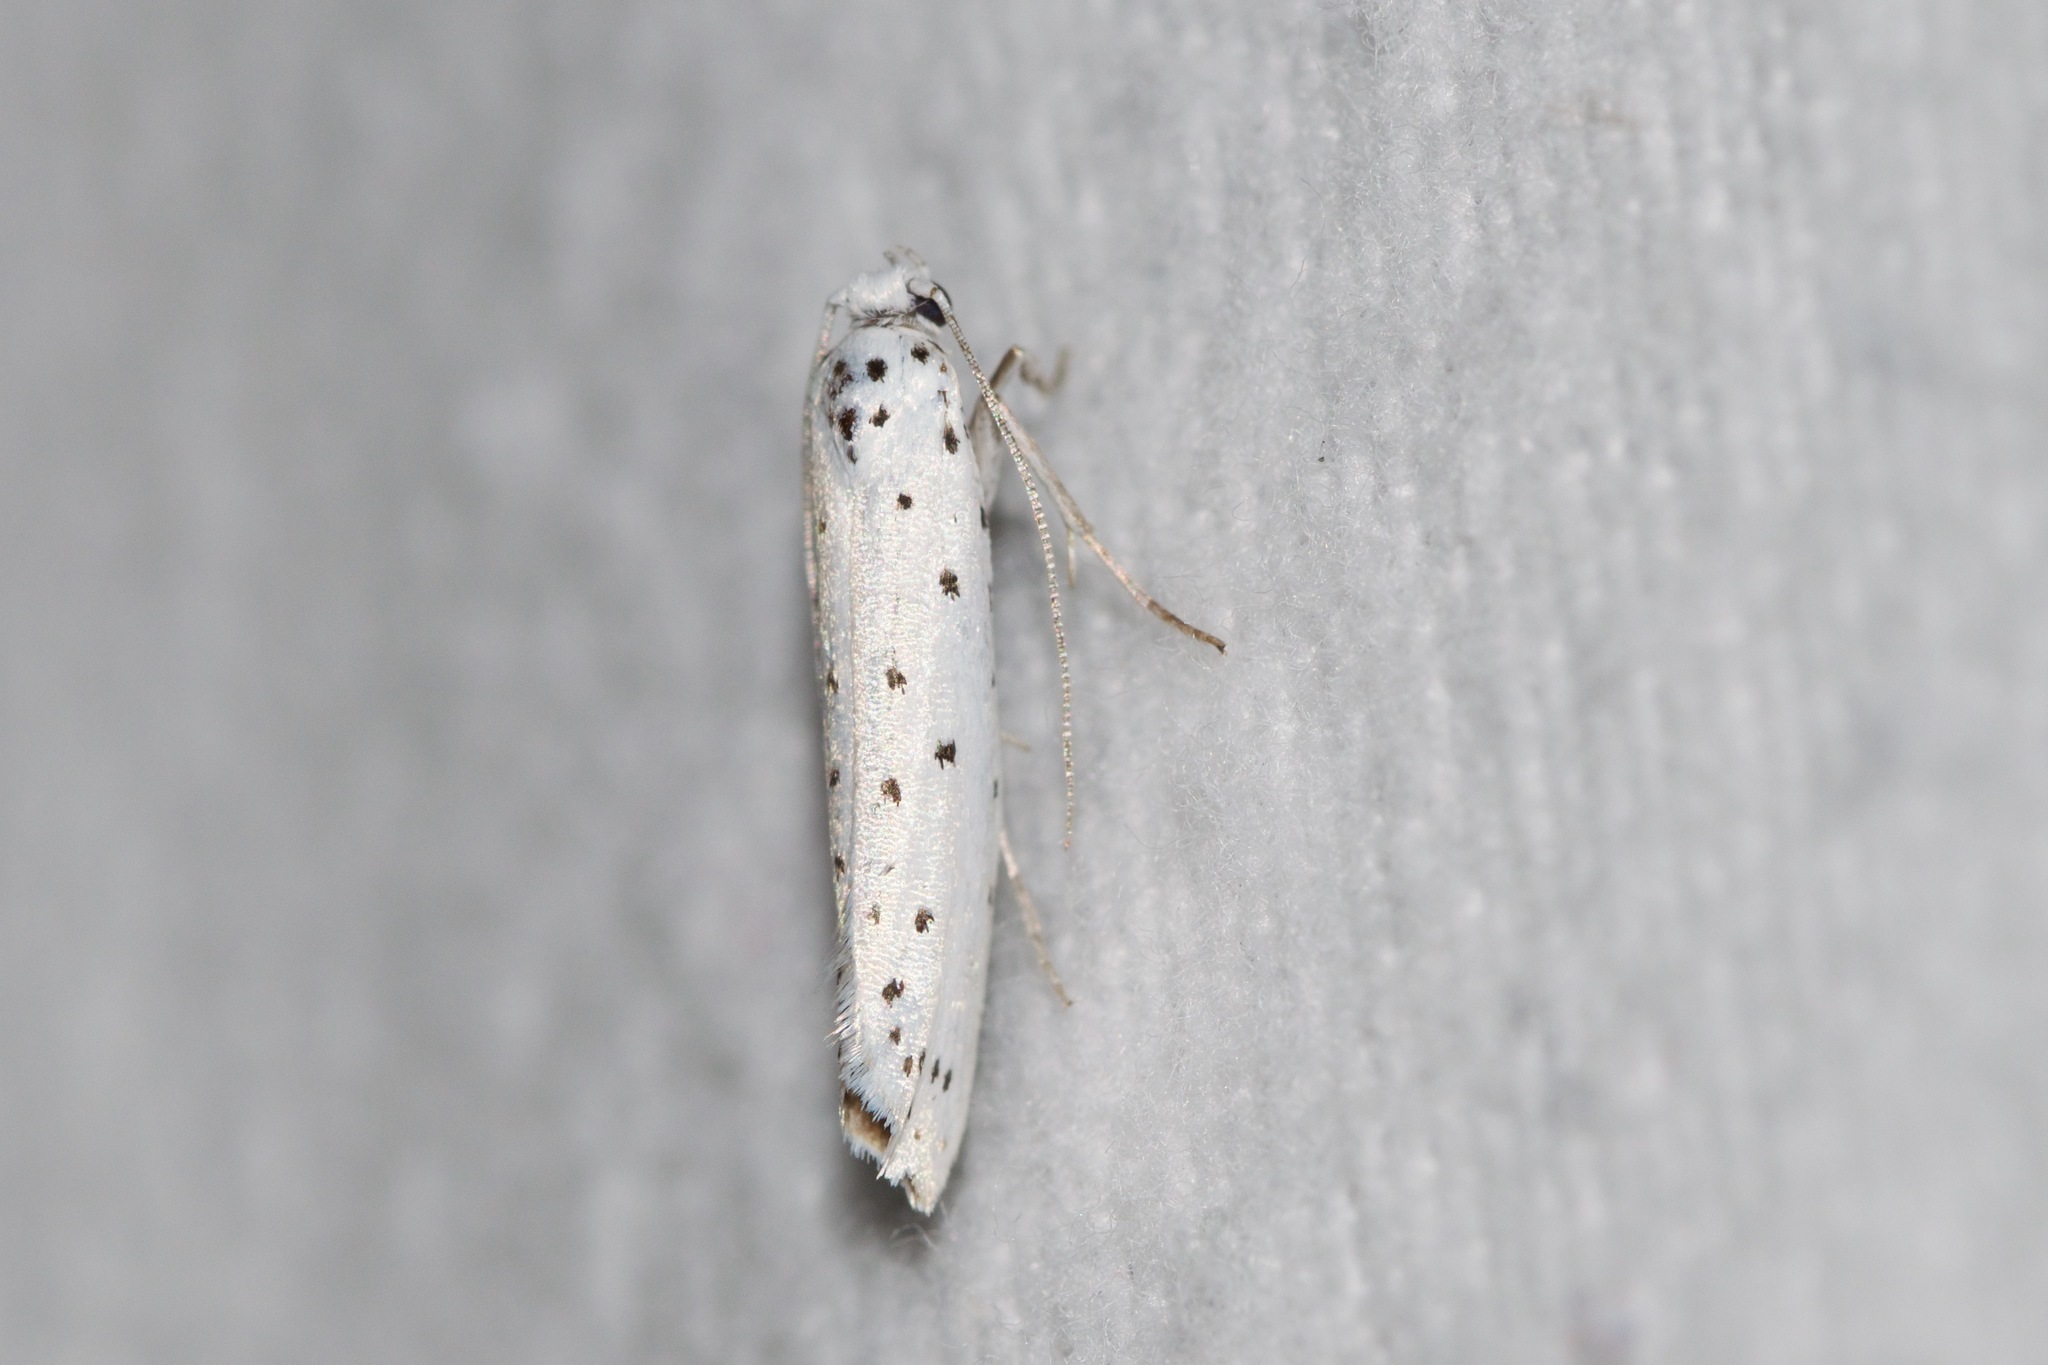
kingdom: Animalia
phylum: Arthropoda
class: Insecta
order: Lepidoptera
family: Yponomeutidae
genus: Yponomeuta
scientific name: Yponomeuta padella
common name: Orchard ermine
